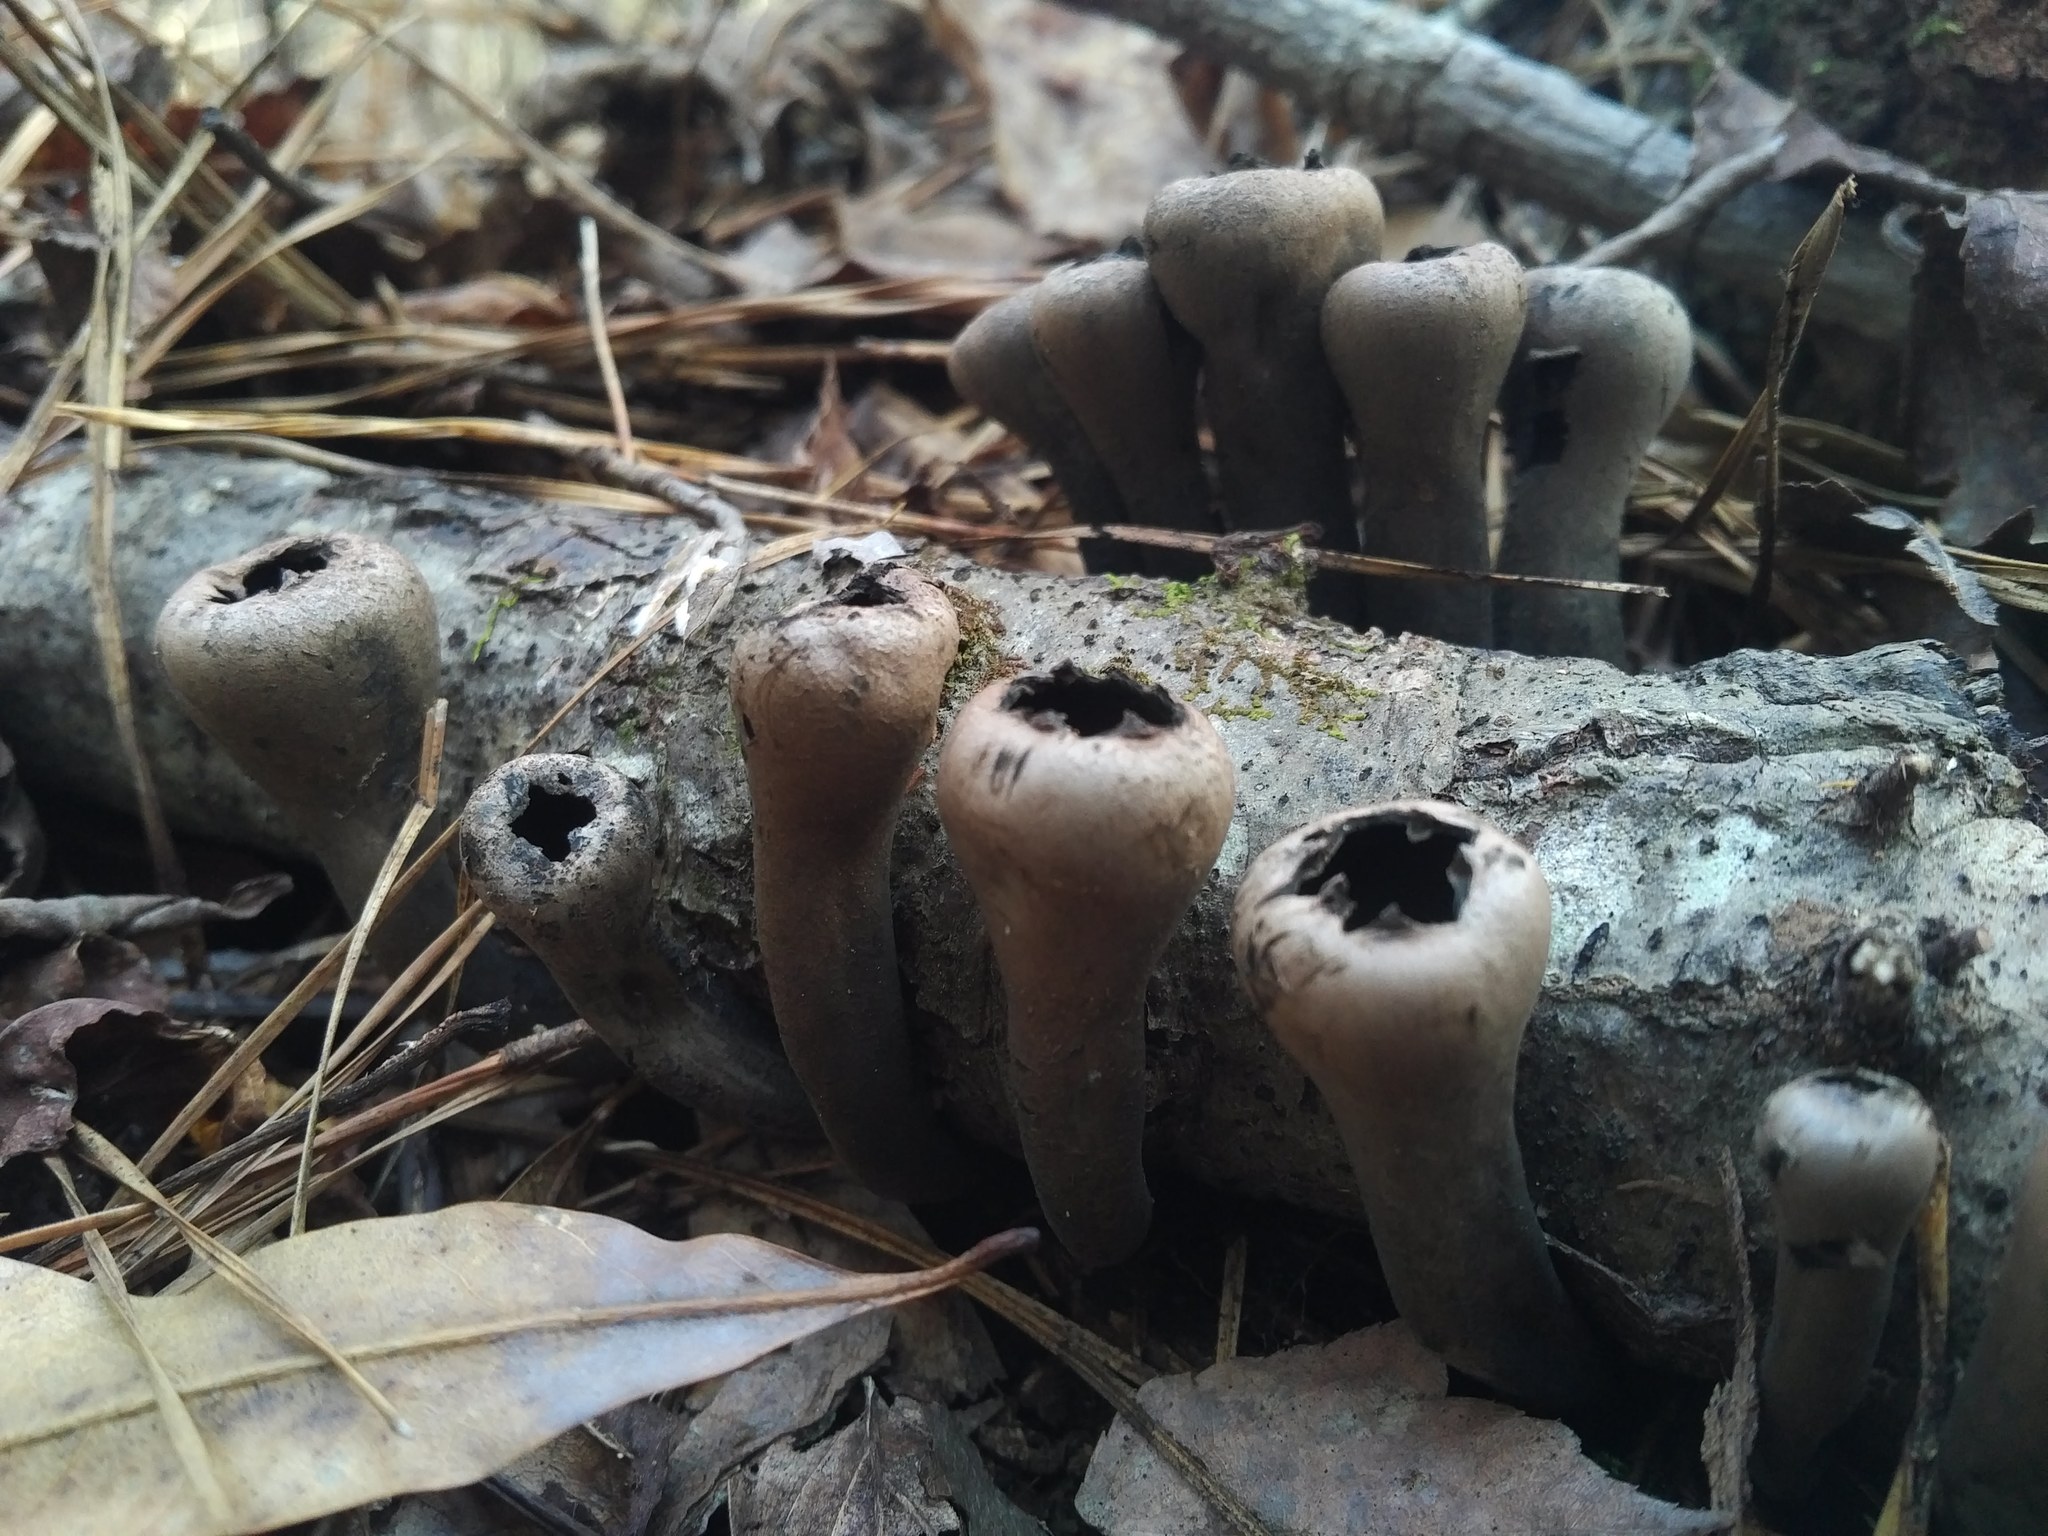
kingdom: Fungi
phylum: Ascomycota
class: Pezizomycetes
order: Pezizales
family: Sarcosomataceae
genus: Urnula
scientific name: Urnula craterium
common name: Devil's urn
